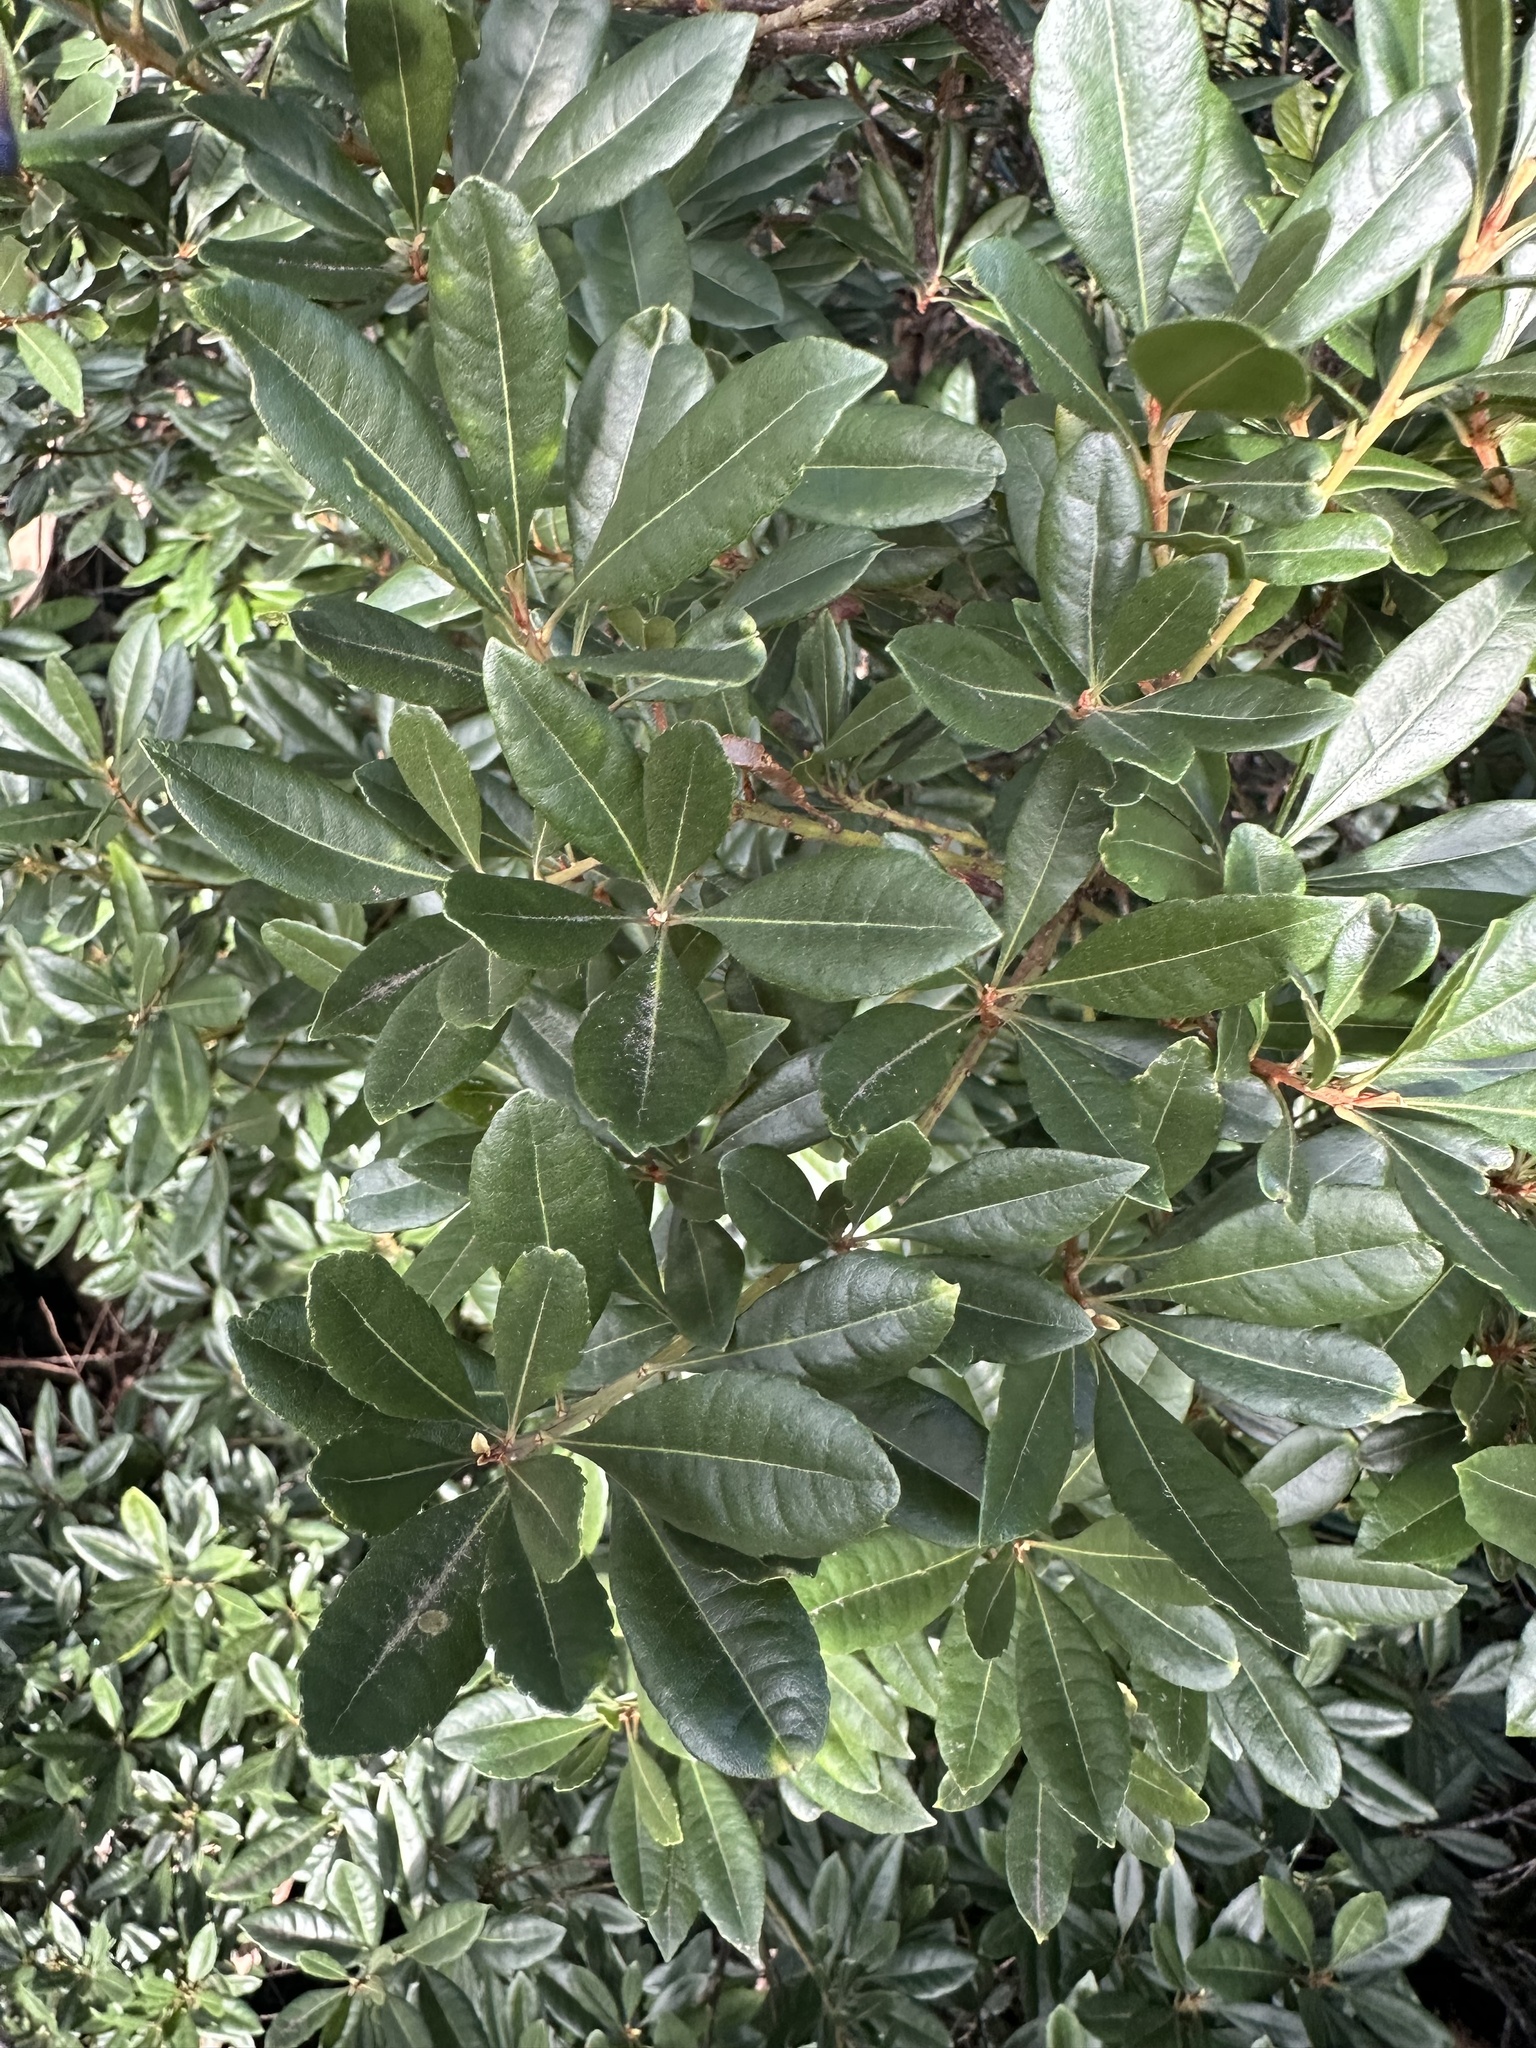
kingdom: Plantae
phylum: Tracheophyta
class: Magnoliopsida
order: Fagales
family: Myricaceae
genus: Morella
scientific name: Morella faya
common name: Firetree
